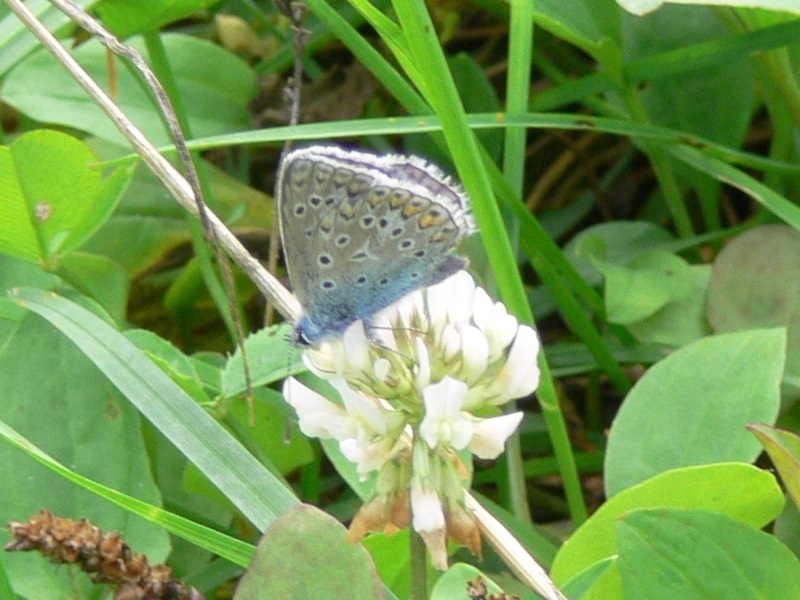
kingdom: Animalia
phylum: Arthropoda
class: Insecta
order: Lepidoptera
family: Lycaenidae
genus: Polyommatus
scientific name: Polyommatus icarus
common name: Common blue
